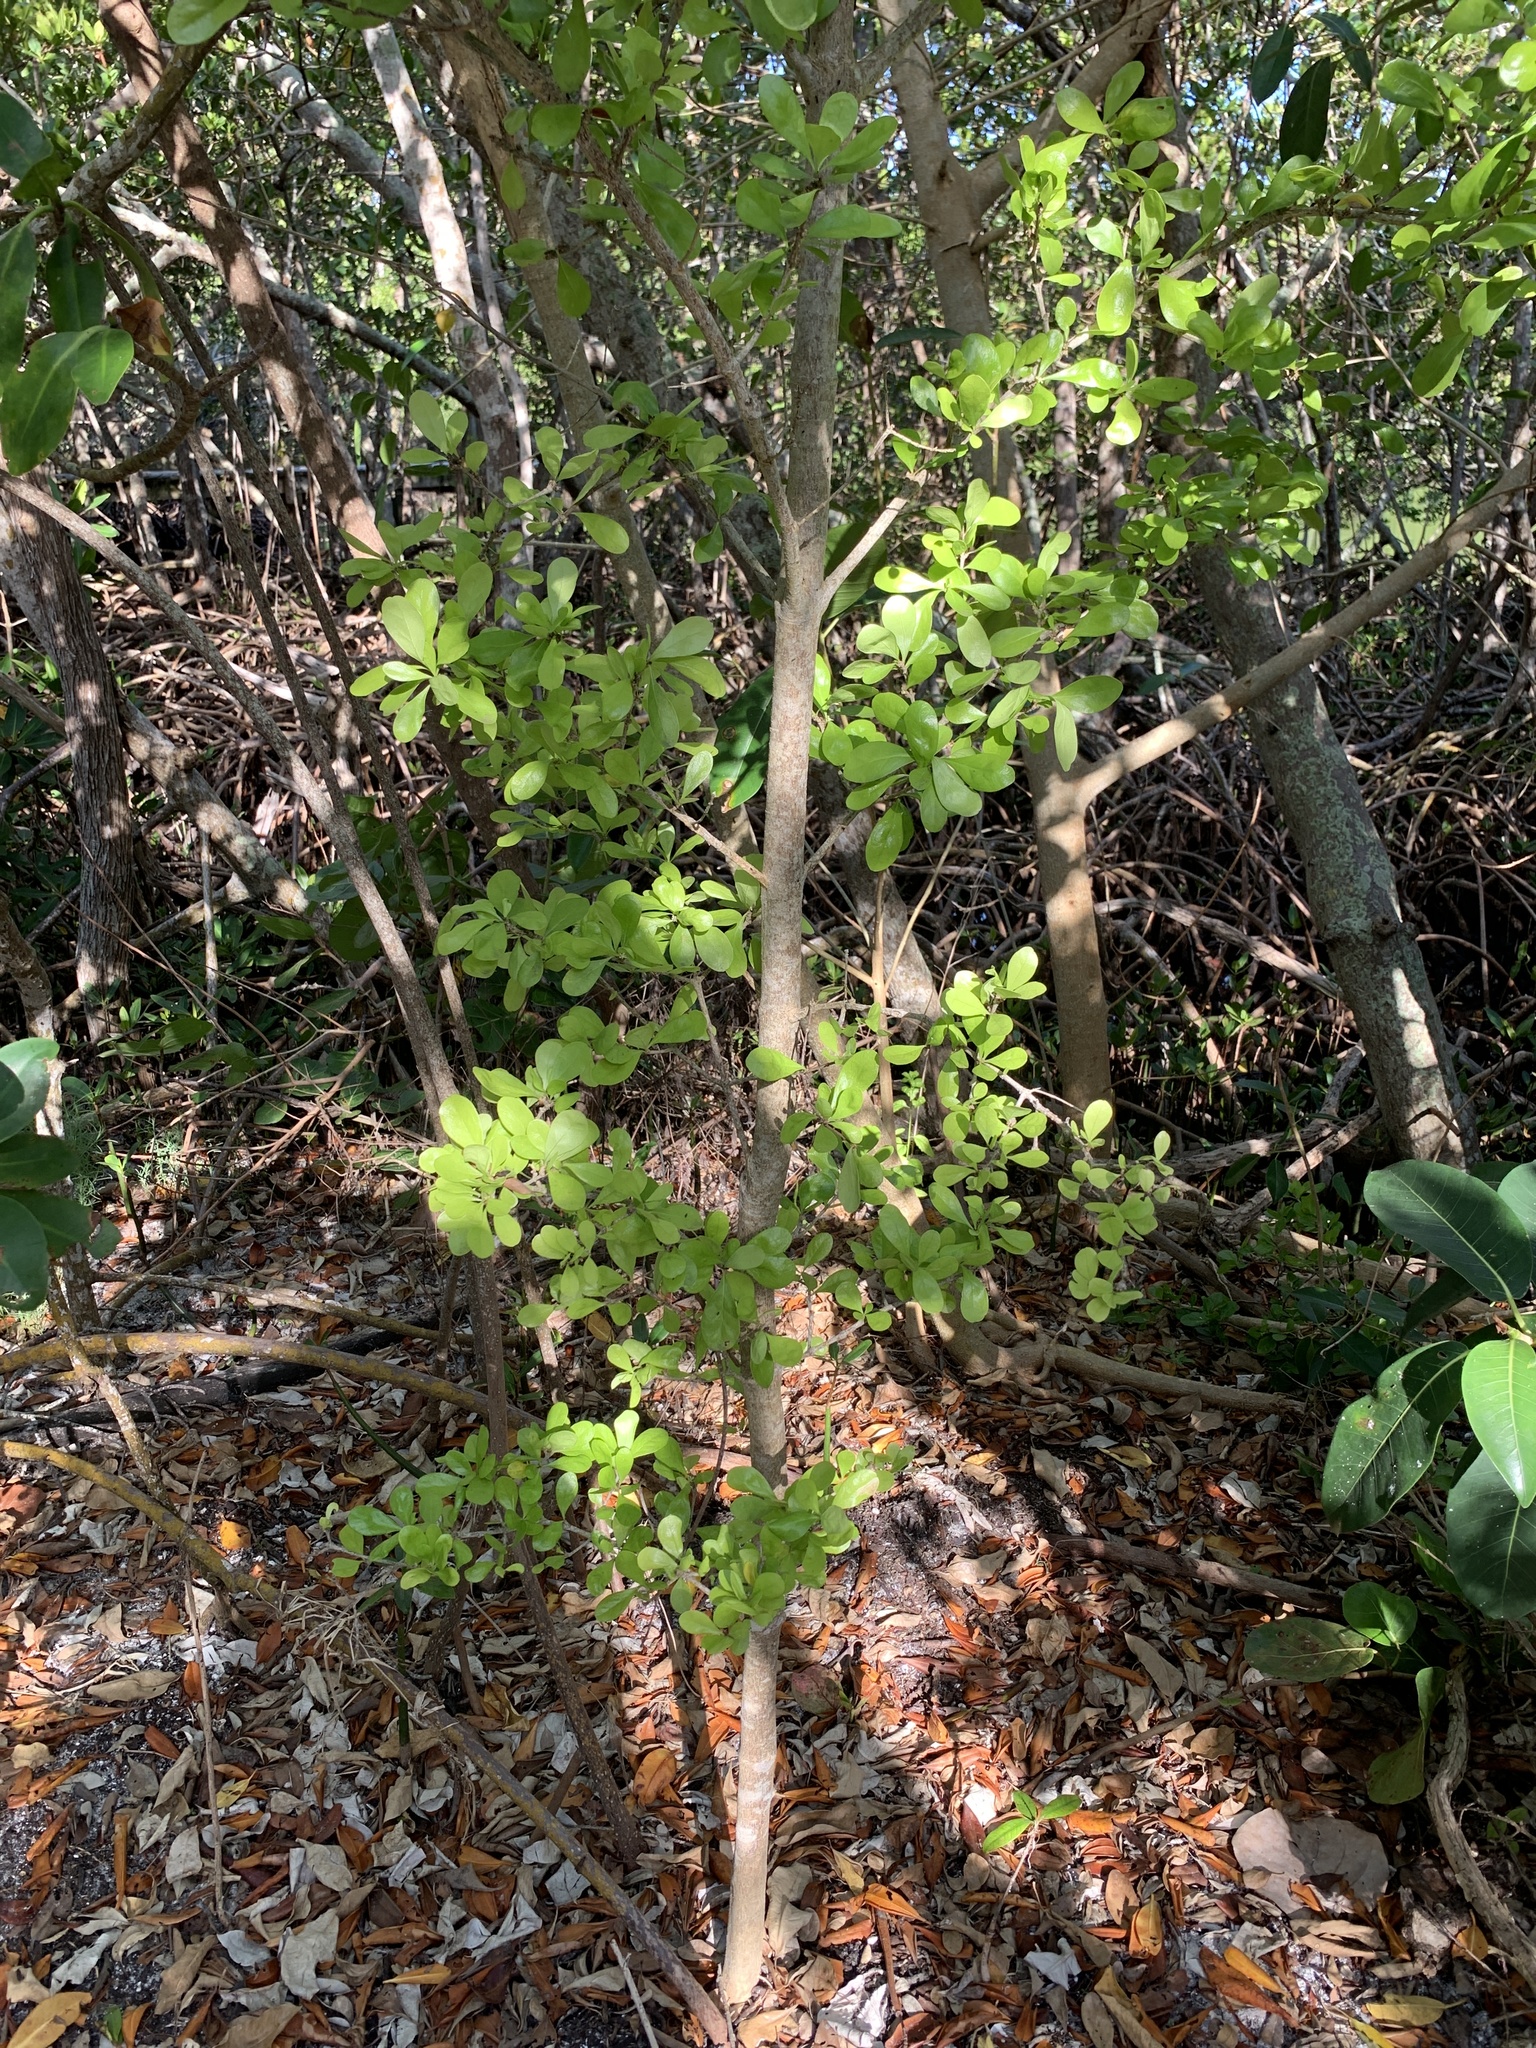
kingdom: Plantae
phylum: Tracheophyta
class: Magnoliopsida
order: Gentianales
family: Rubiaceae
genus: Randia
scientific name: Randia aculeata
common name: Inkberry
